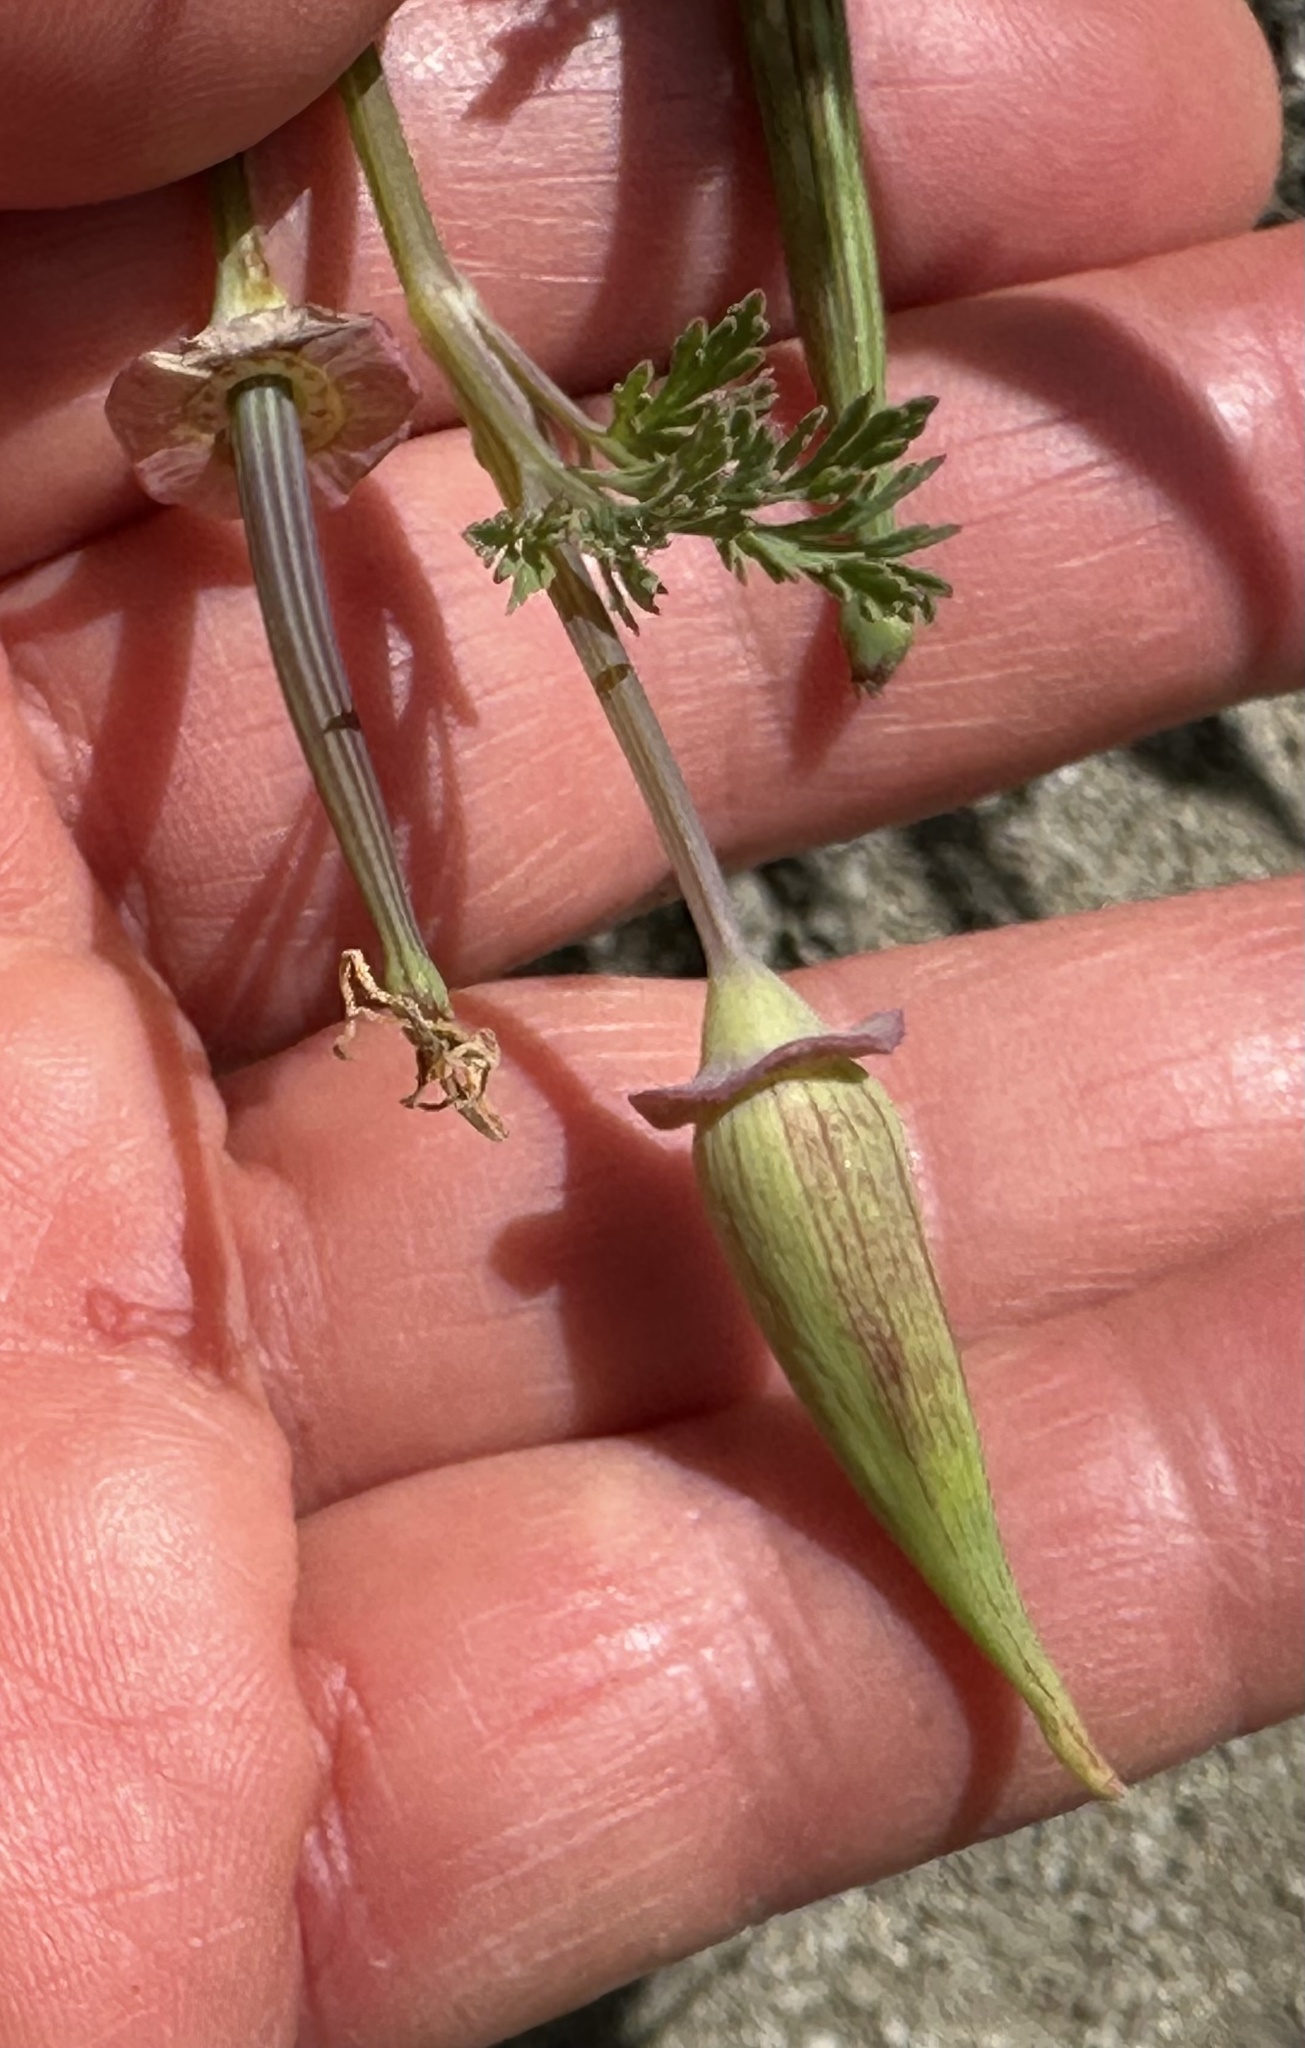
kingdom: Plantae
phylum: Tracheophyta
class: Magnoliopsida
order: Ranunculales
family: Papaveraceae
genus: Eschscholzia
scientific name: Eschscholzia californica
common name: California poppy
